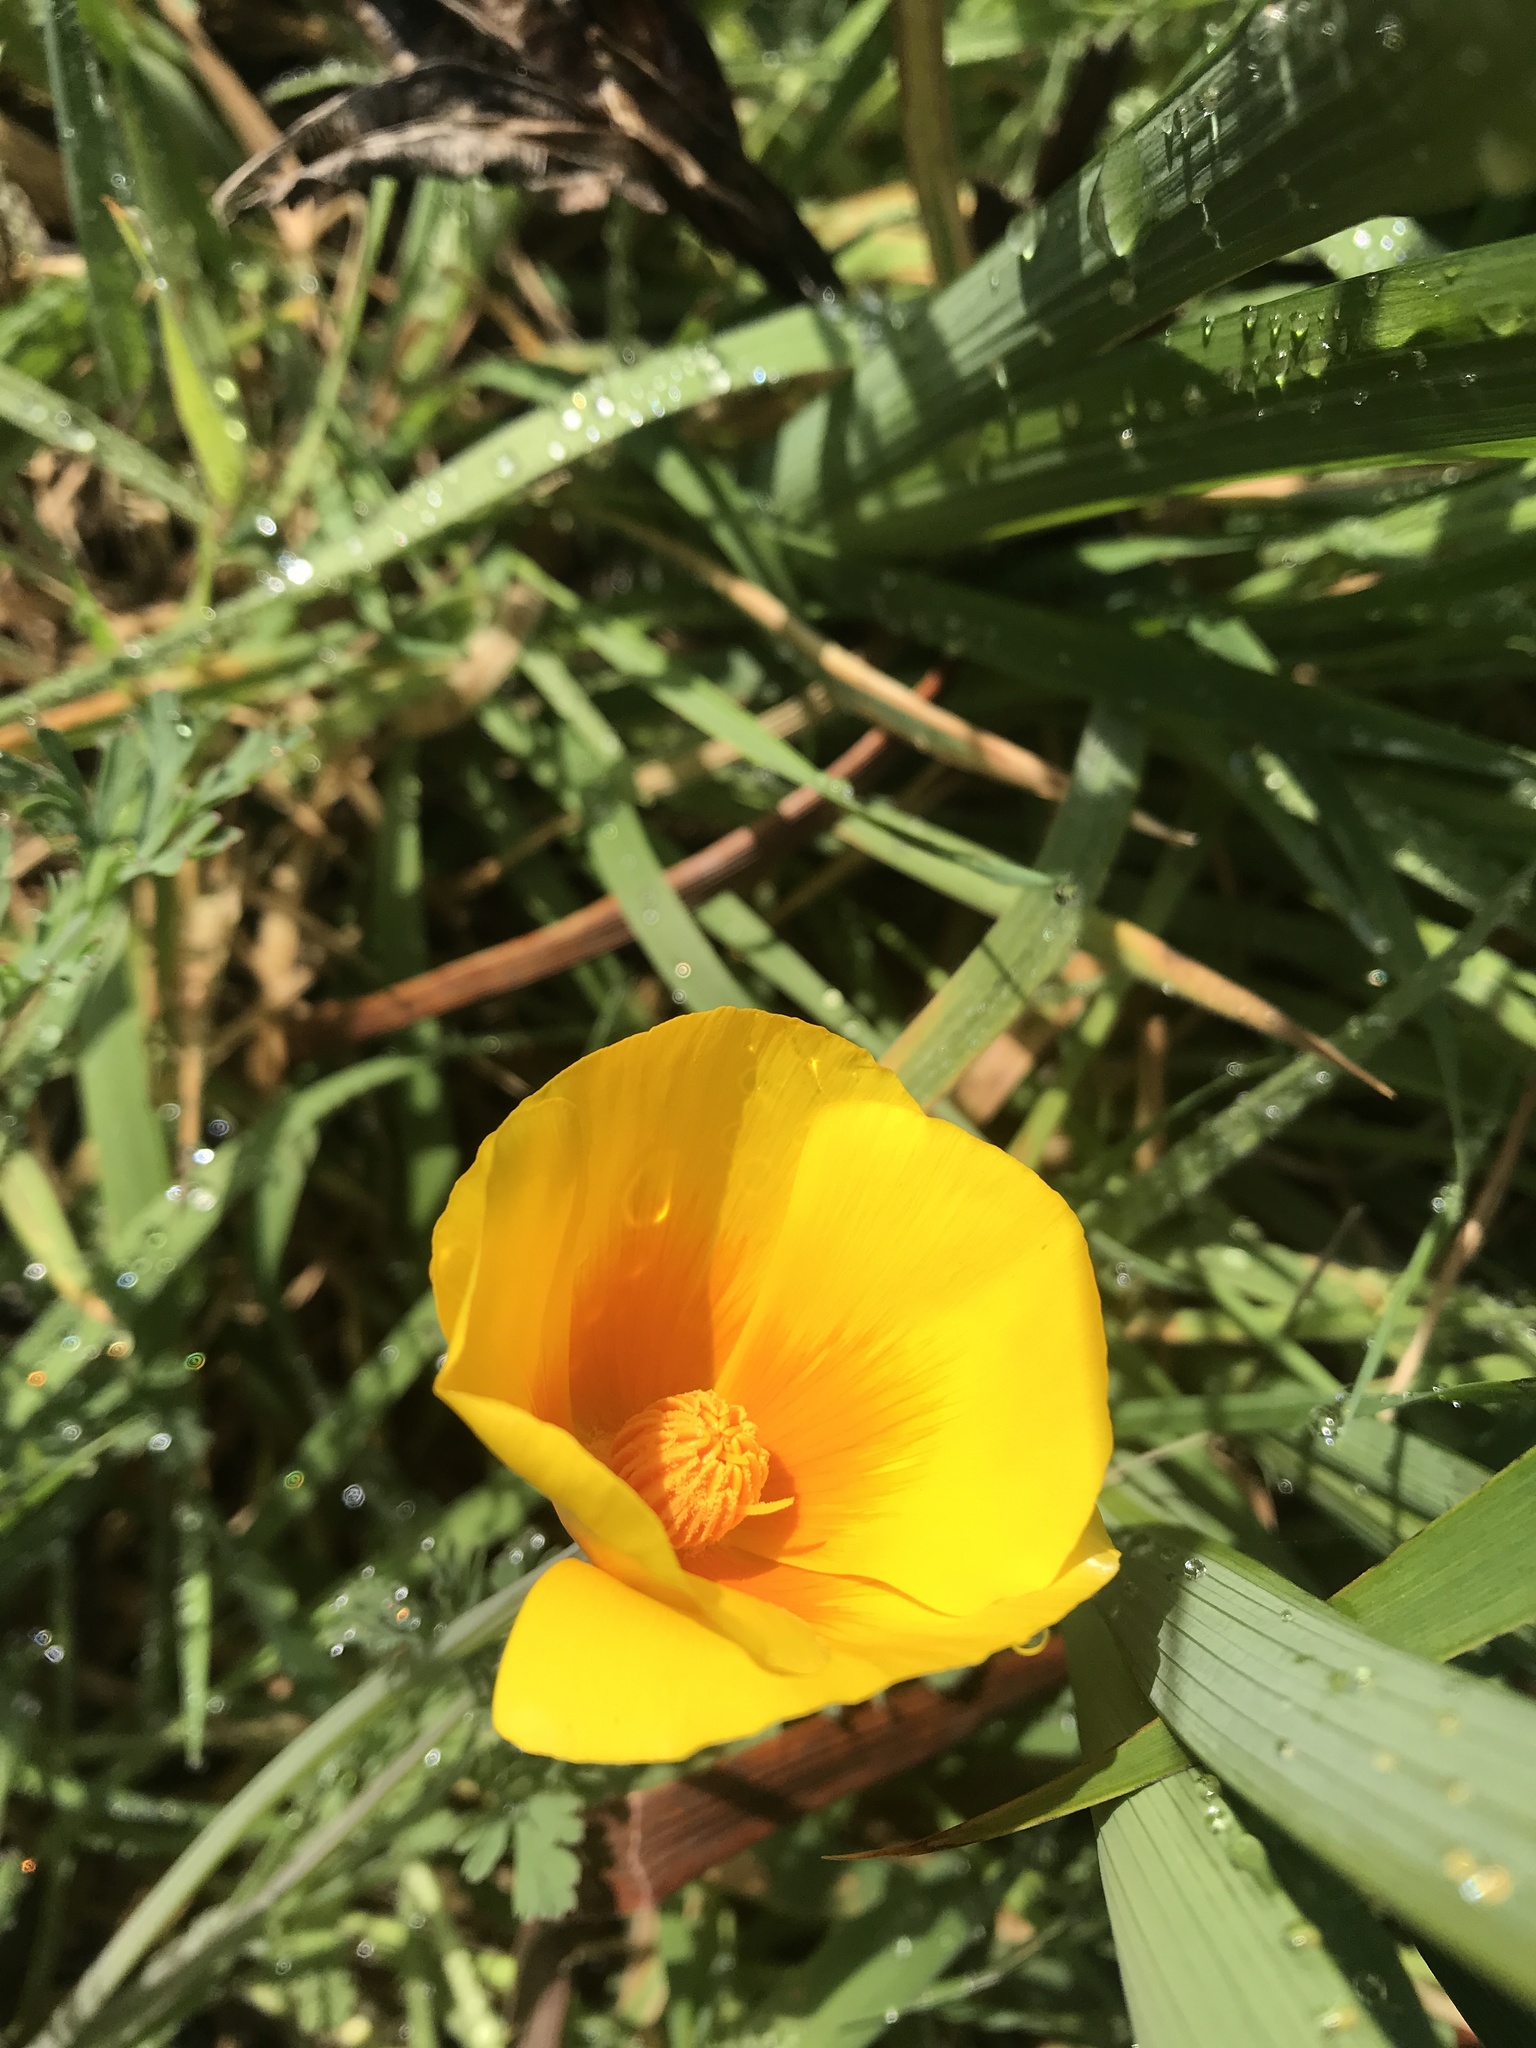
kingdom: Plantae
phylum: Tracheophyta
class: Magnoliopsida
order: Ranunculales
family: Papaveraceae
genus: Eschscholzia
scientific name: Eschscholzia californica
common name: California poppy
